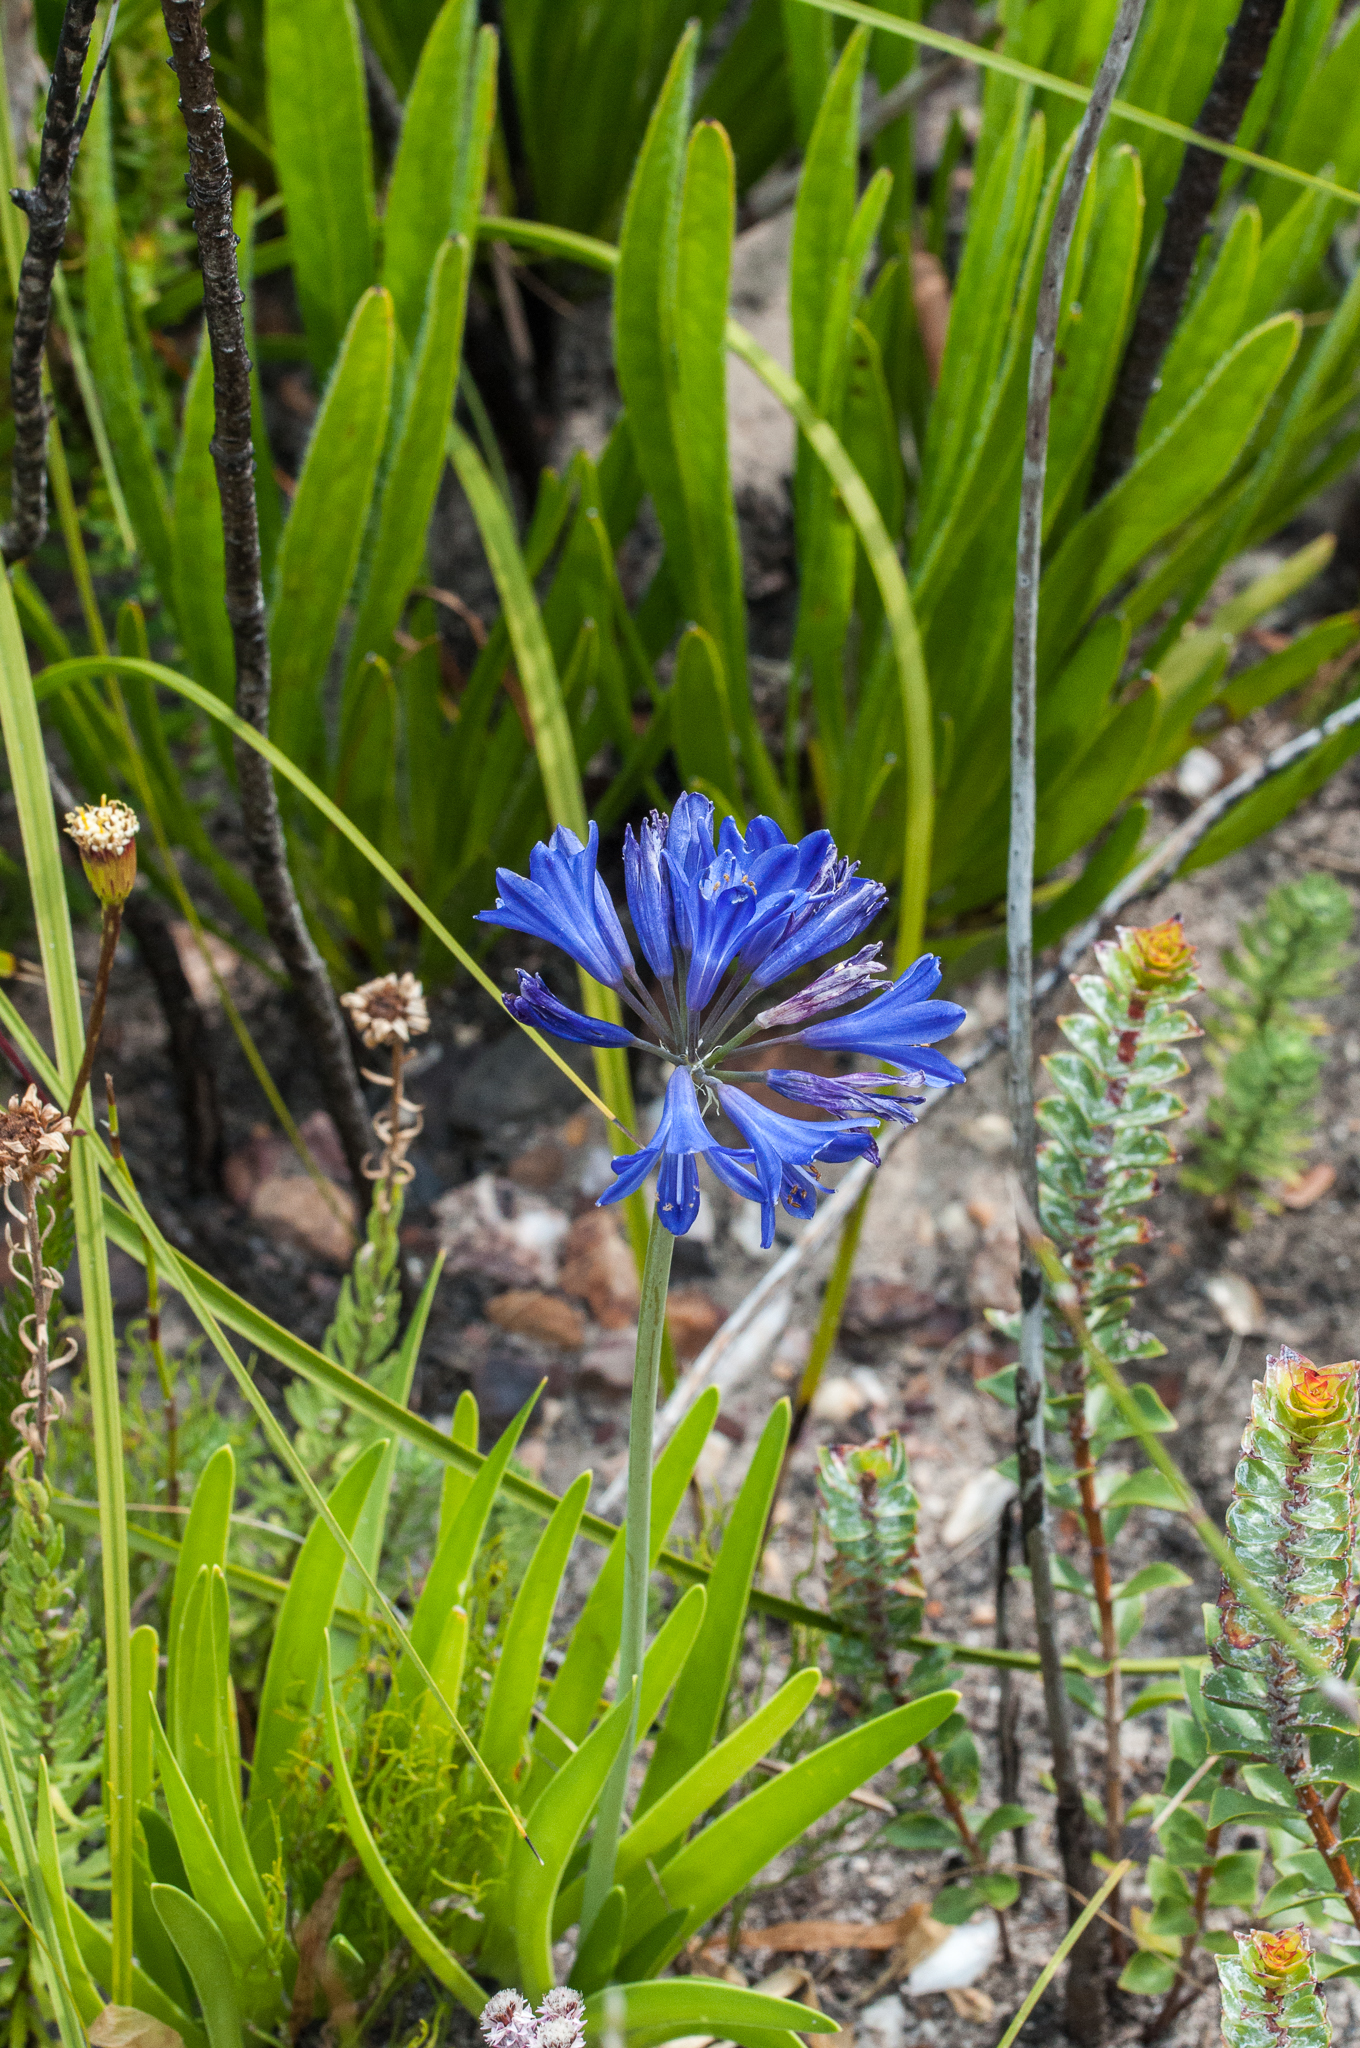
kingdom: Plantae
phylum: Tracheophyta
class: Liliopsida
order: Asparagales
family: Amaryllidaceae
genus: Agapanthus
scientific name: Agapanthus africanus
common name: Lily-of-the-nile
